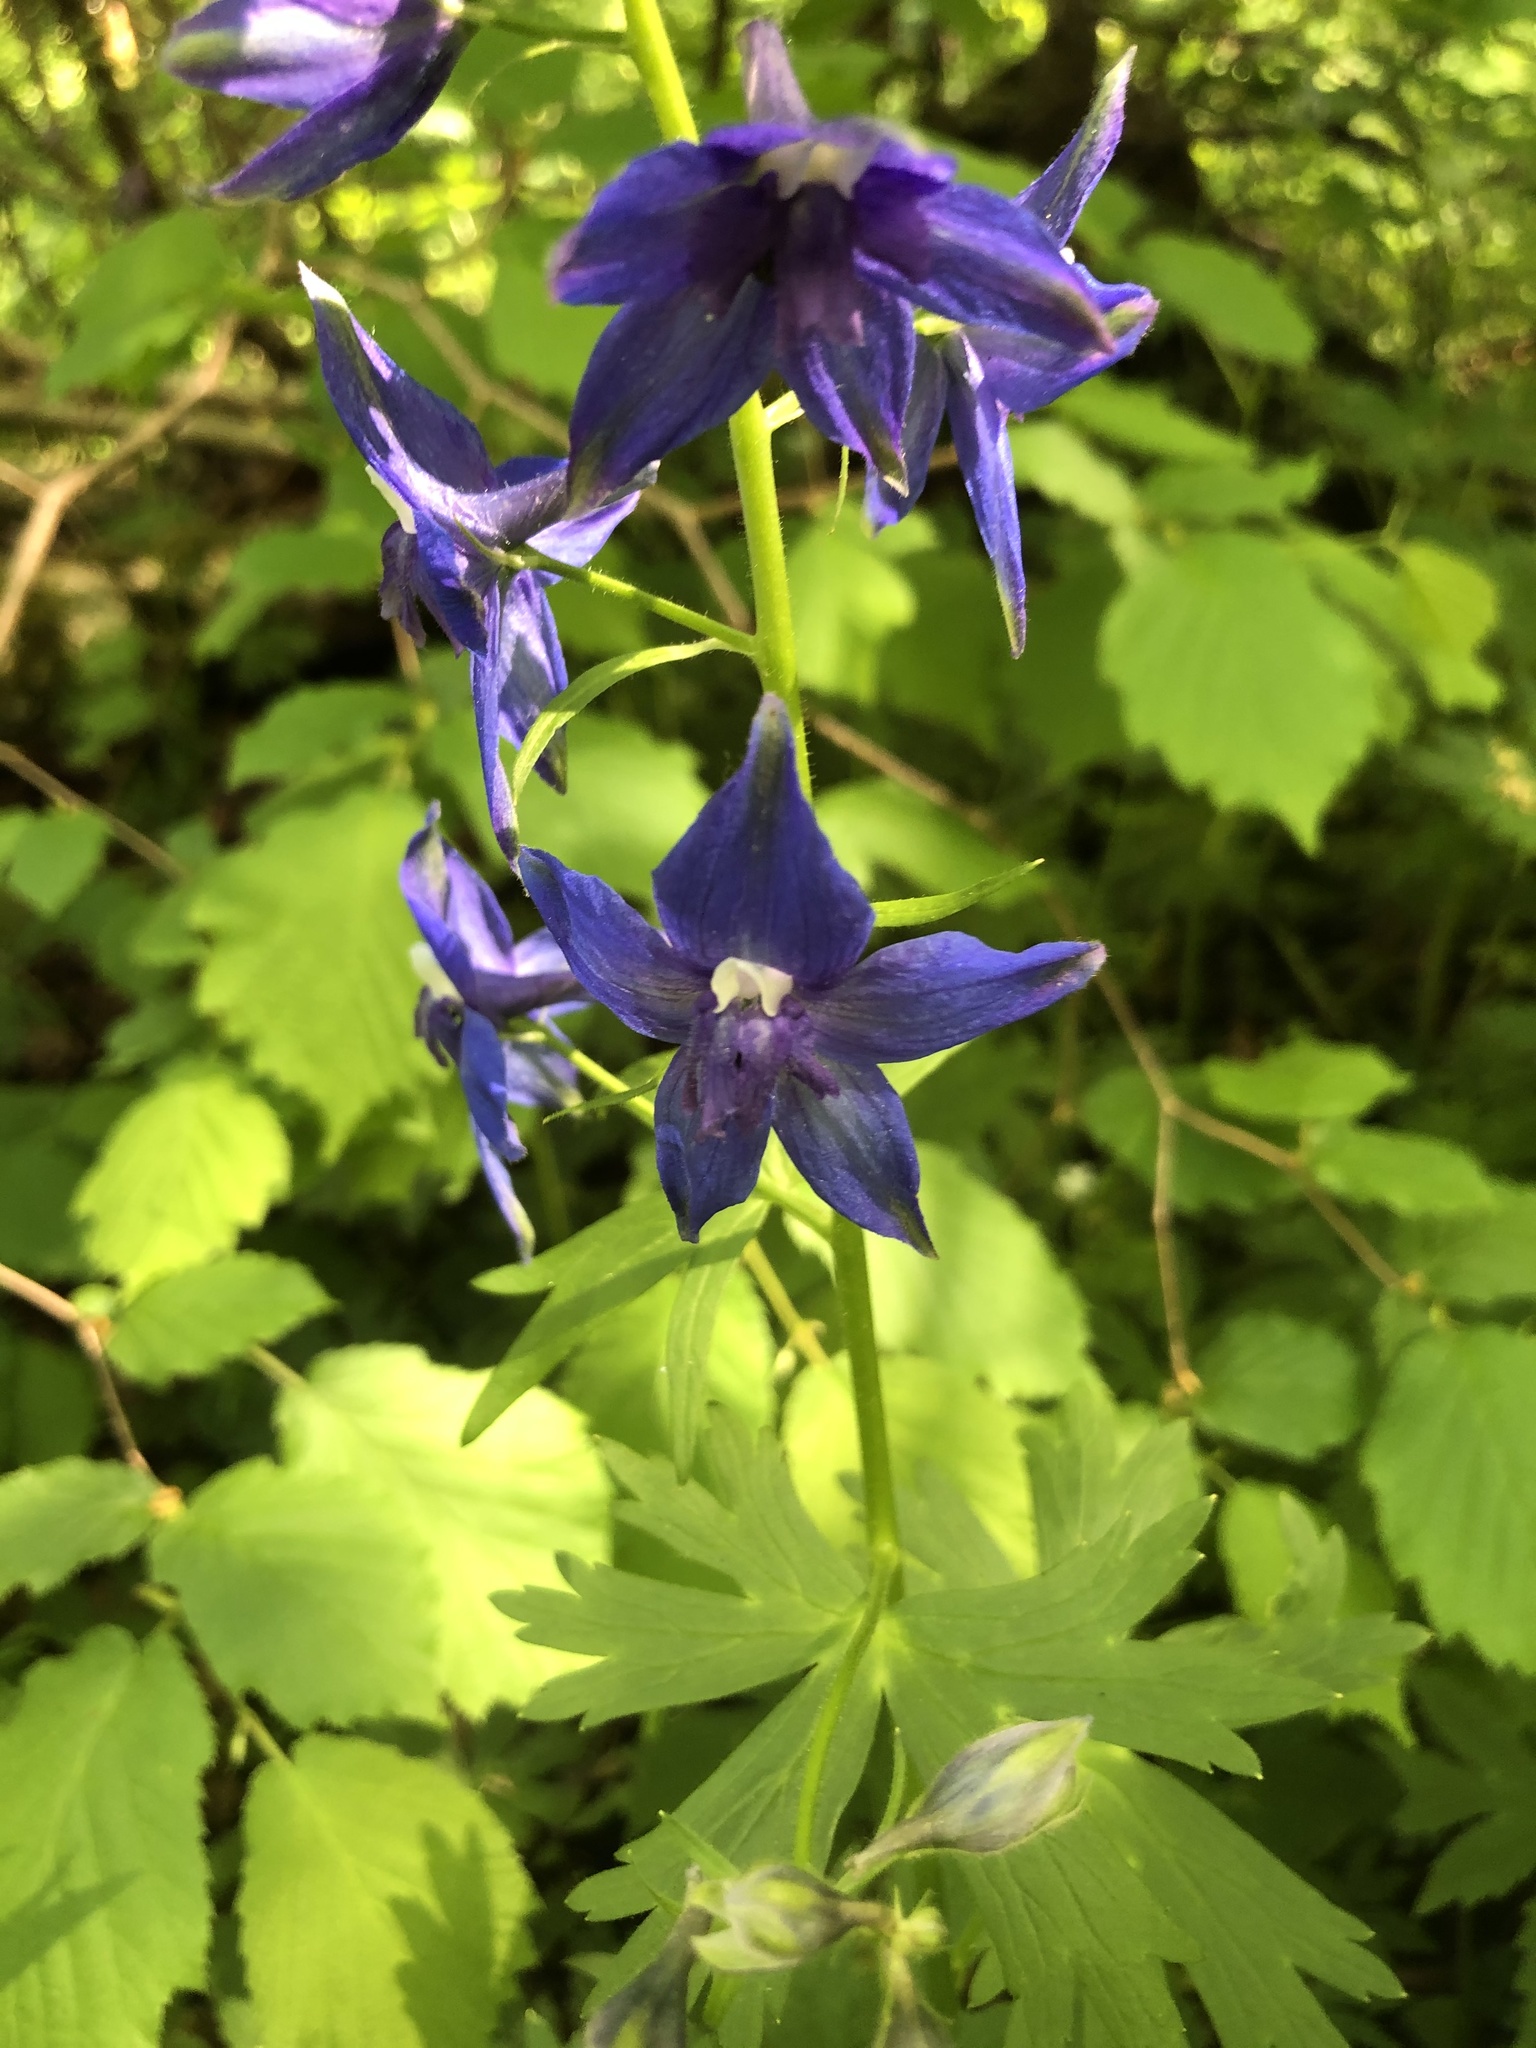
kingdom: Plantae
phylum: Tracheophyta
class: Magnoliopsida
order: Ranunculales
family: Ranunculaceae
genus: Delphinium
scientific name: Delphinium trolliifolium
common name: Cow-poison
